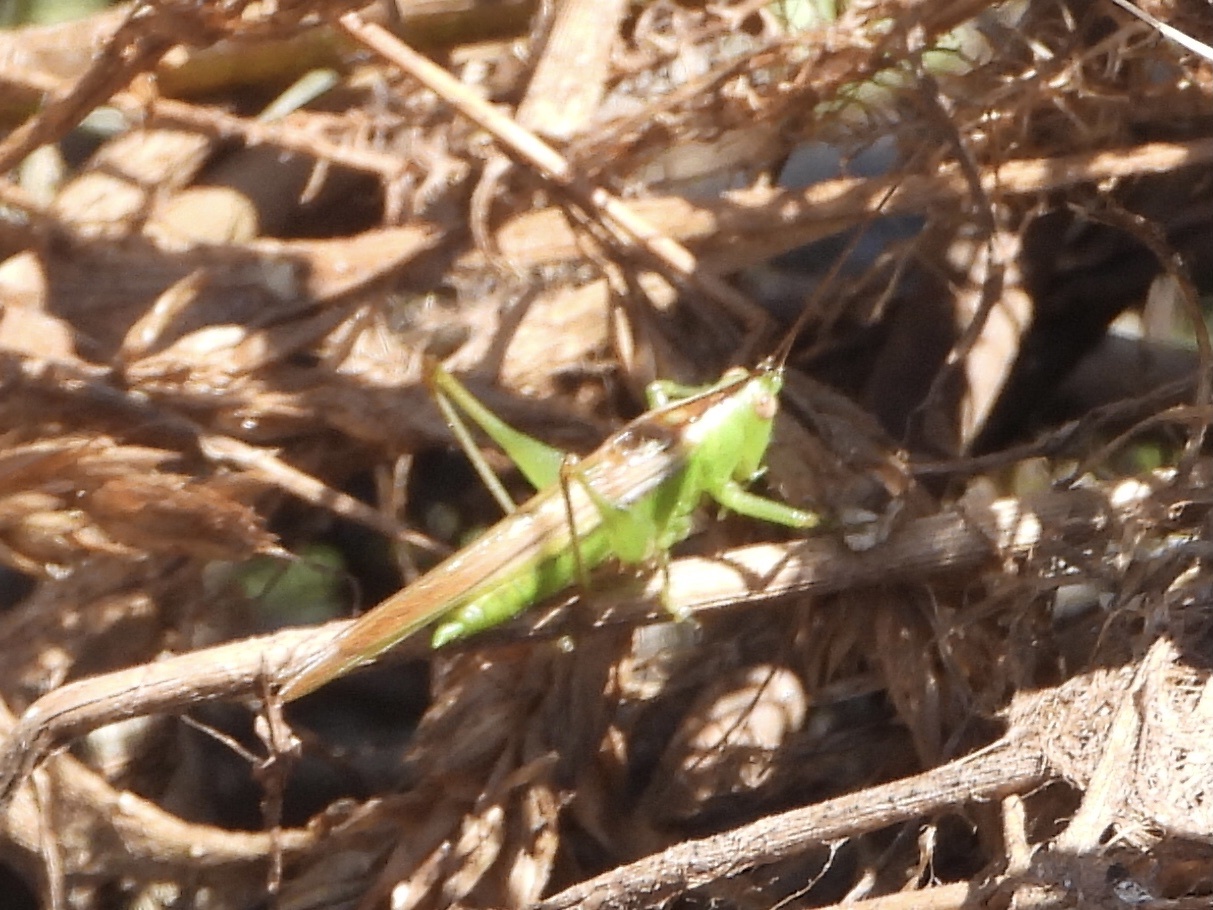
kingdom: Animalia
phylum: Arthropoda
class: Insecta
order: Orthoptera
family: Tettigoniidae
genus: Conocephalus
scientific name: Conocephalus fasciatus
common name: Slender meadow katydid
